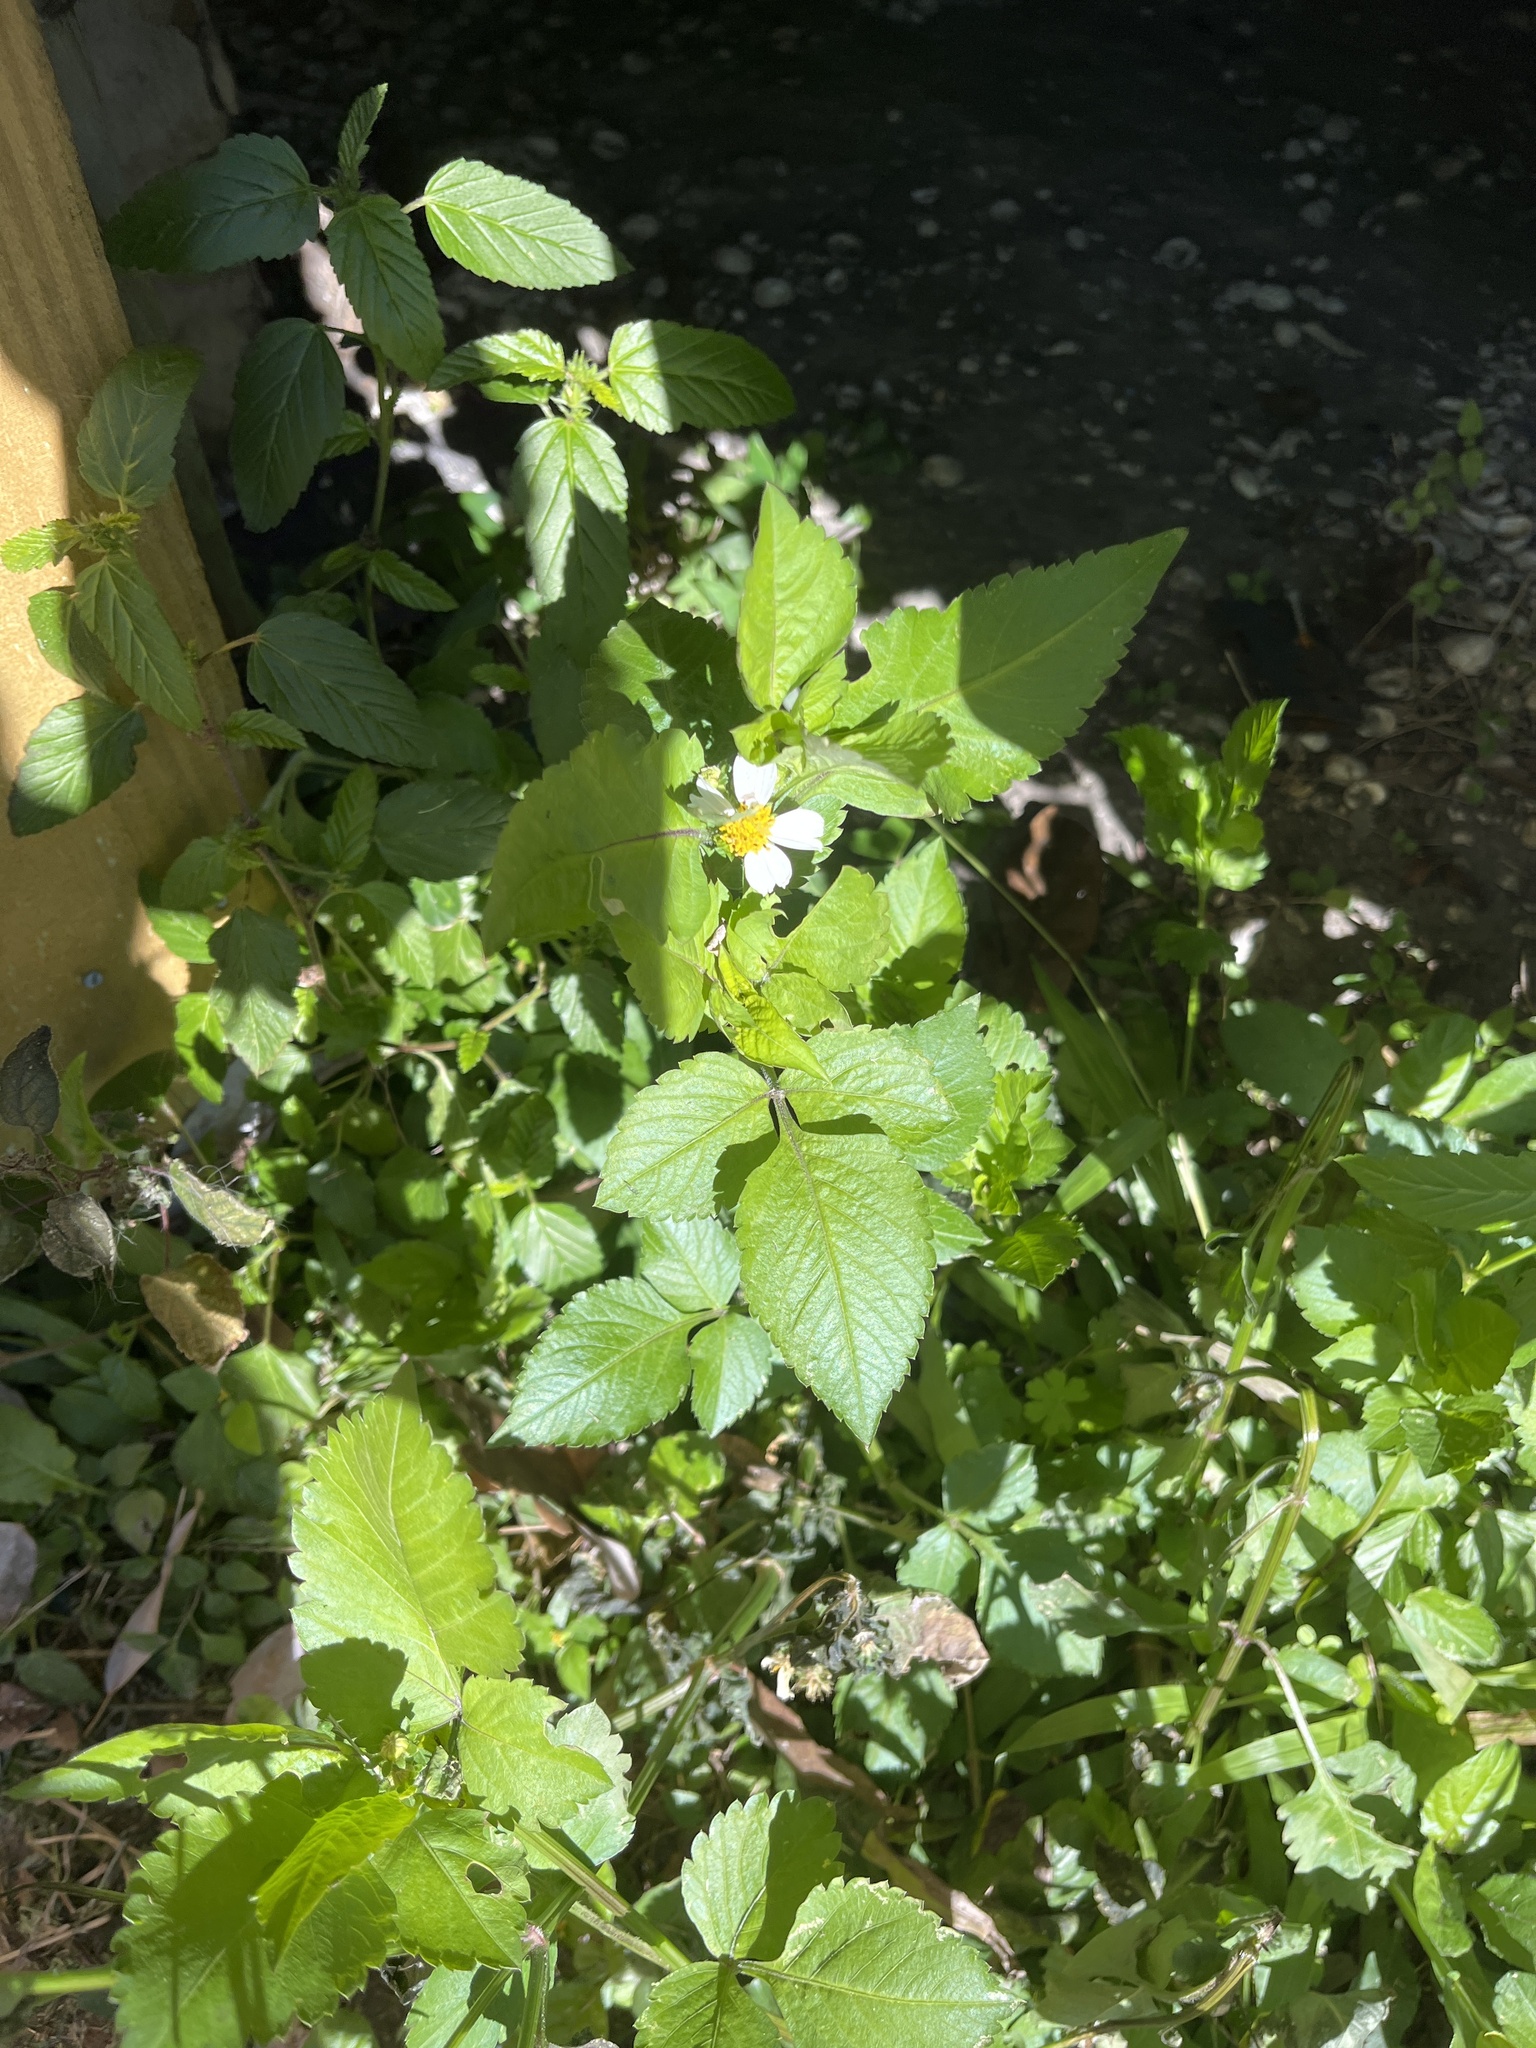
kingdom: Plantae
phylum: Tracheophyta
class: Magnoliopsida
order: Asterales
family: Asteraceae
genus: Bidens
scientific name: Bidens alba
